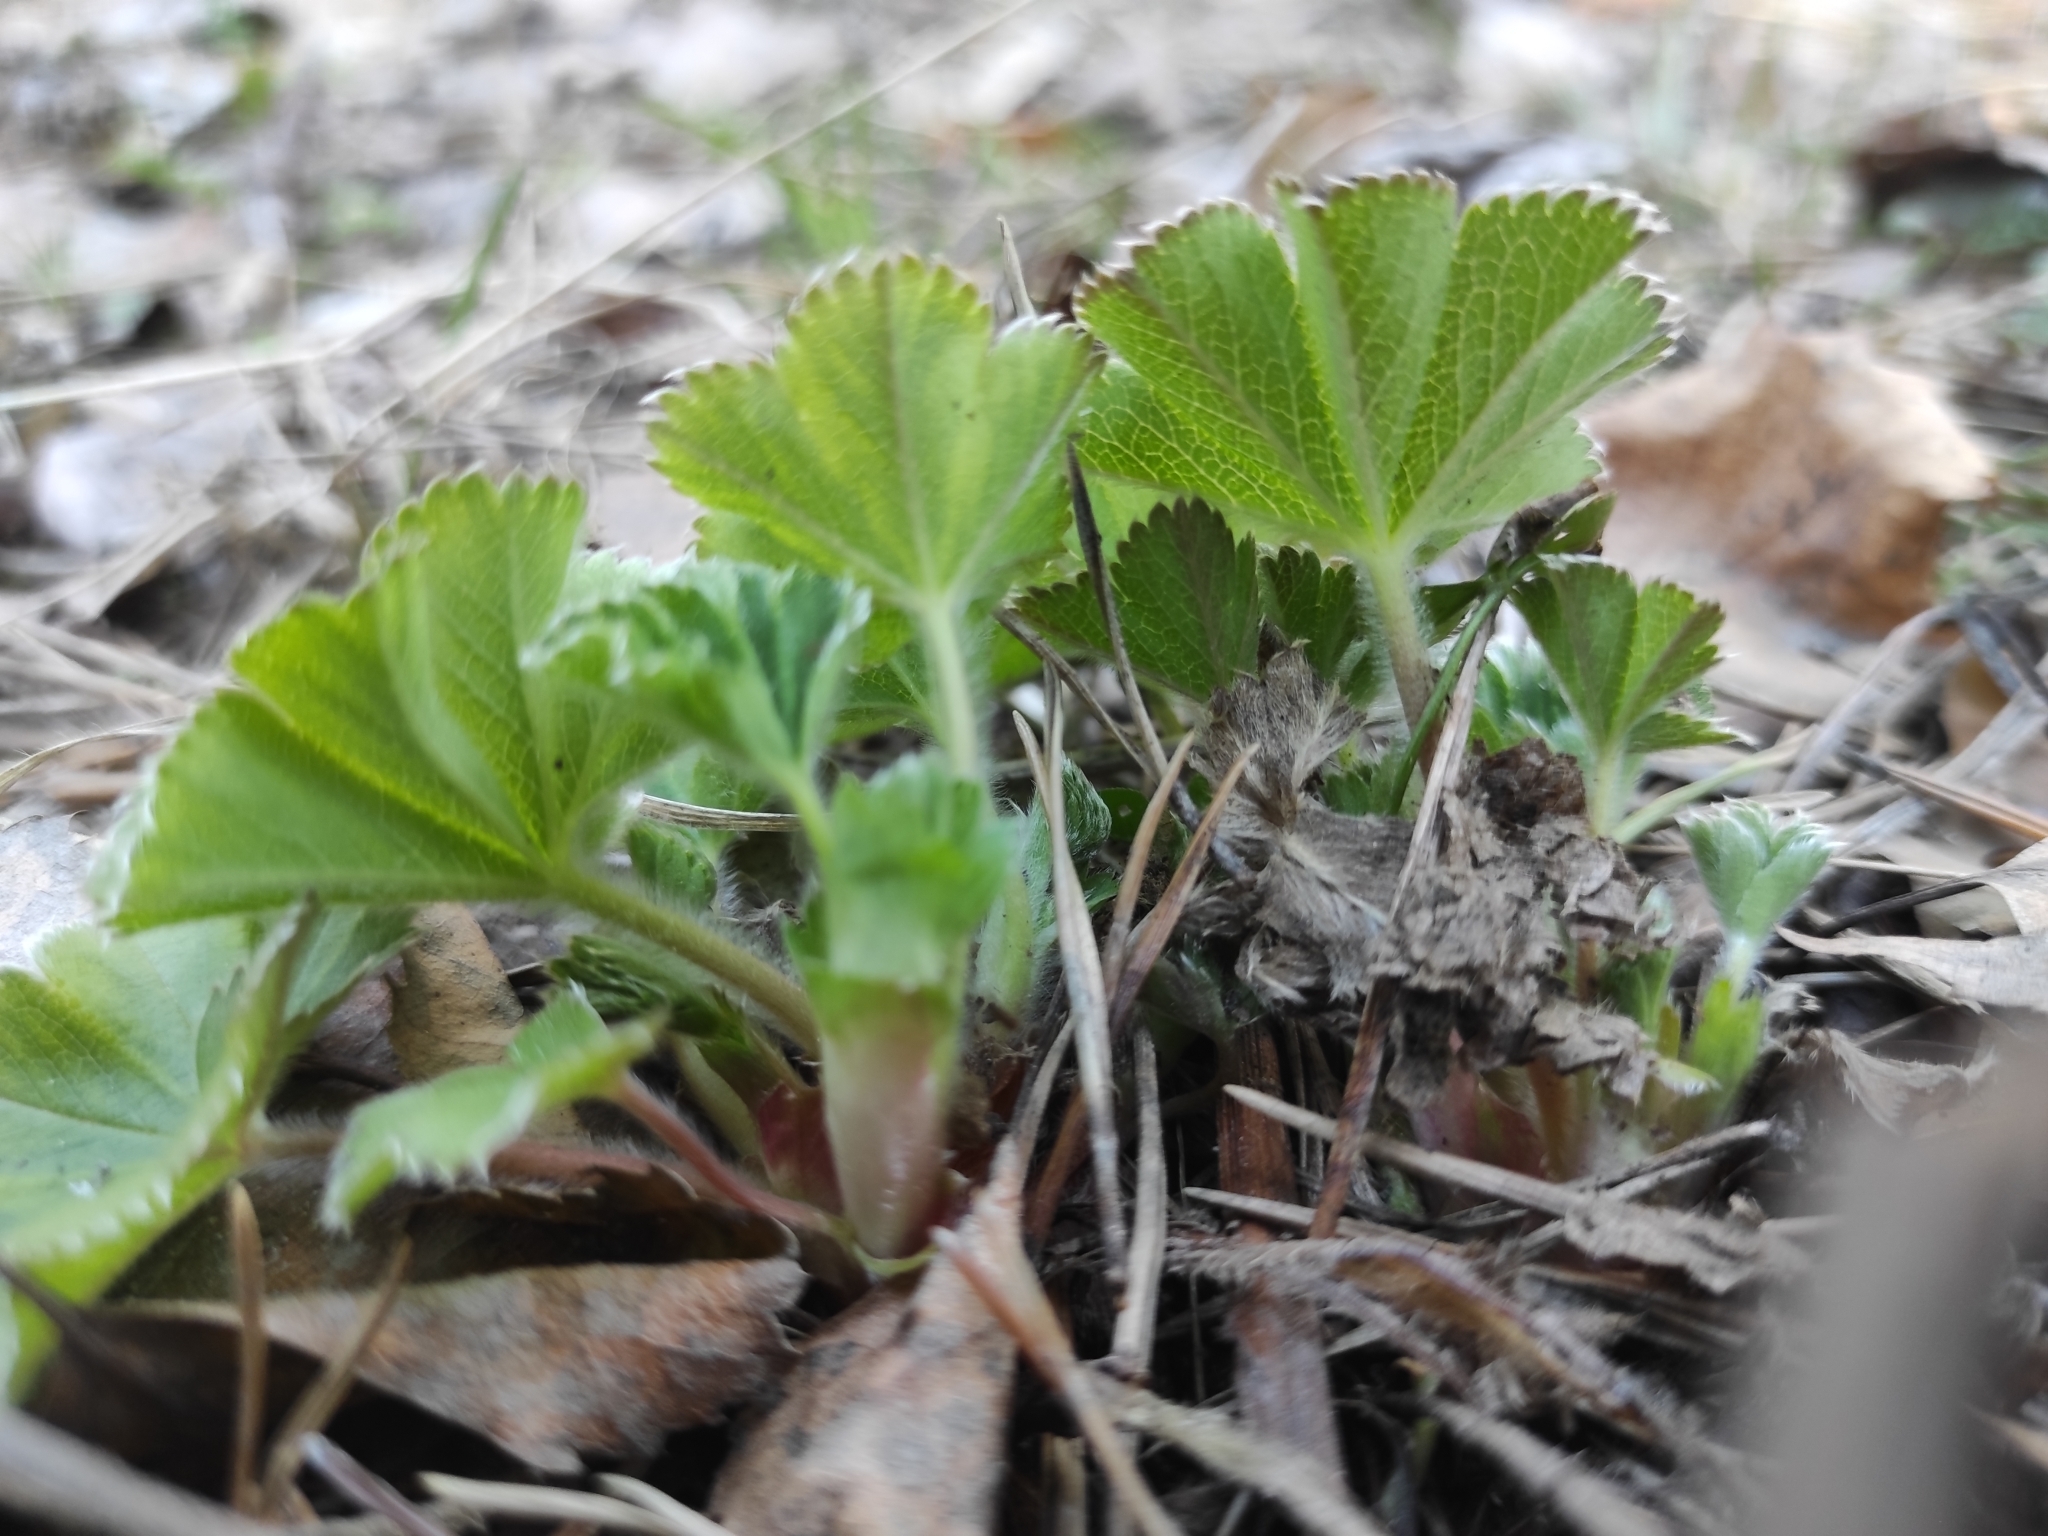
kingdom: Plantae
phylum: Tracheophyta
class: Magnoliopsida
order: Rosales
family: Rosaceae
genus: Alchemilla
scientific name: Alchemilla
